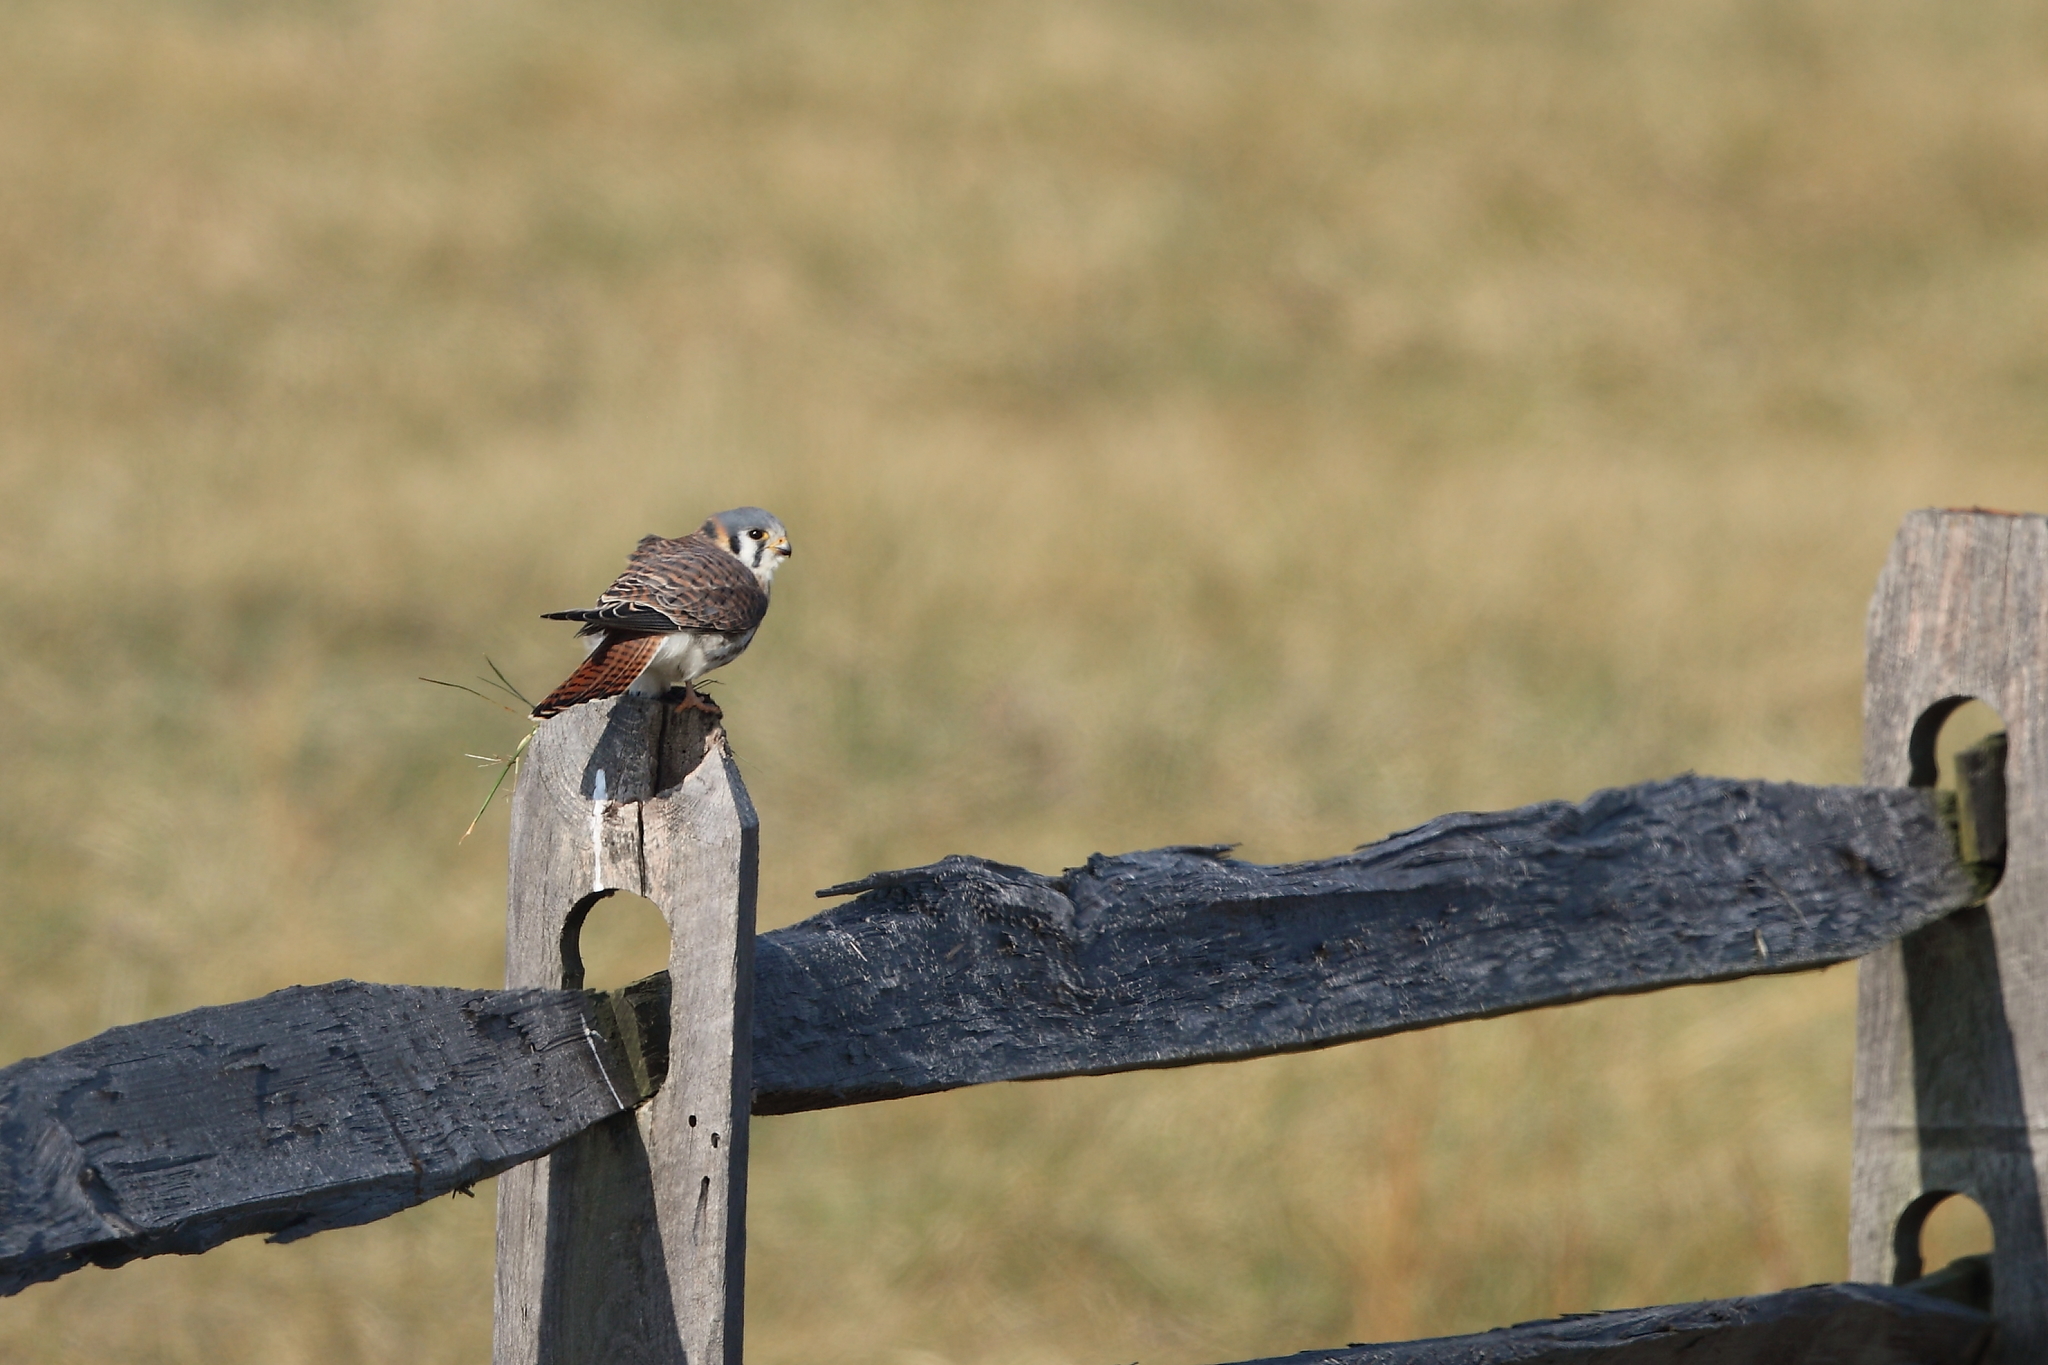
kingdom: Animalia
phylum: Chordata
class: Aves
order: Falconiformes
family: Falconidae
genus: Falco
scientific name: Falco sparverius
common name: American kestrel
